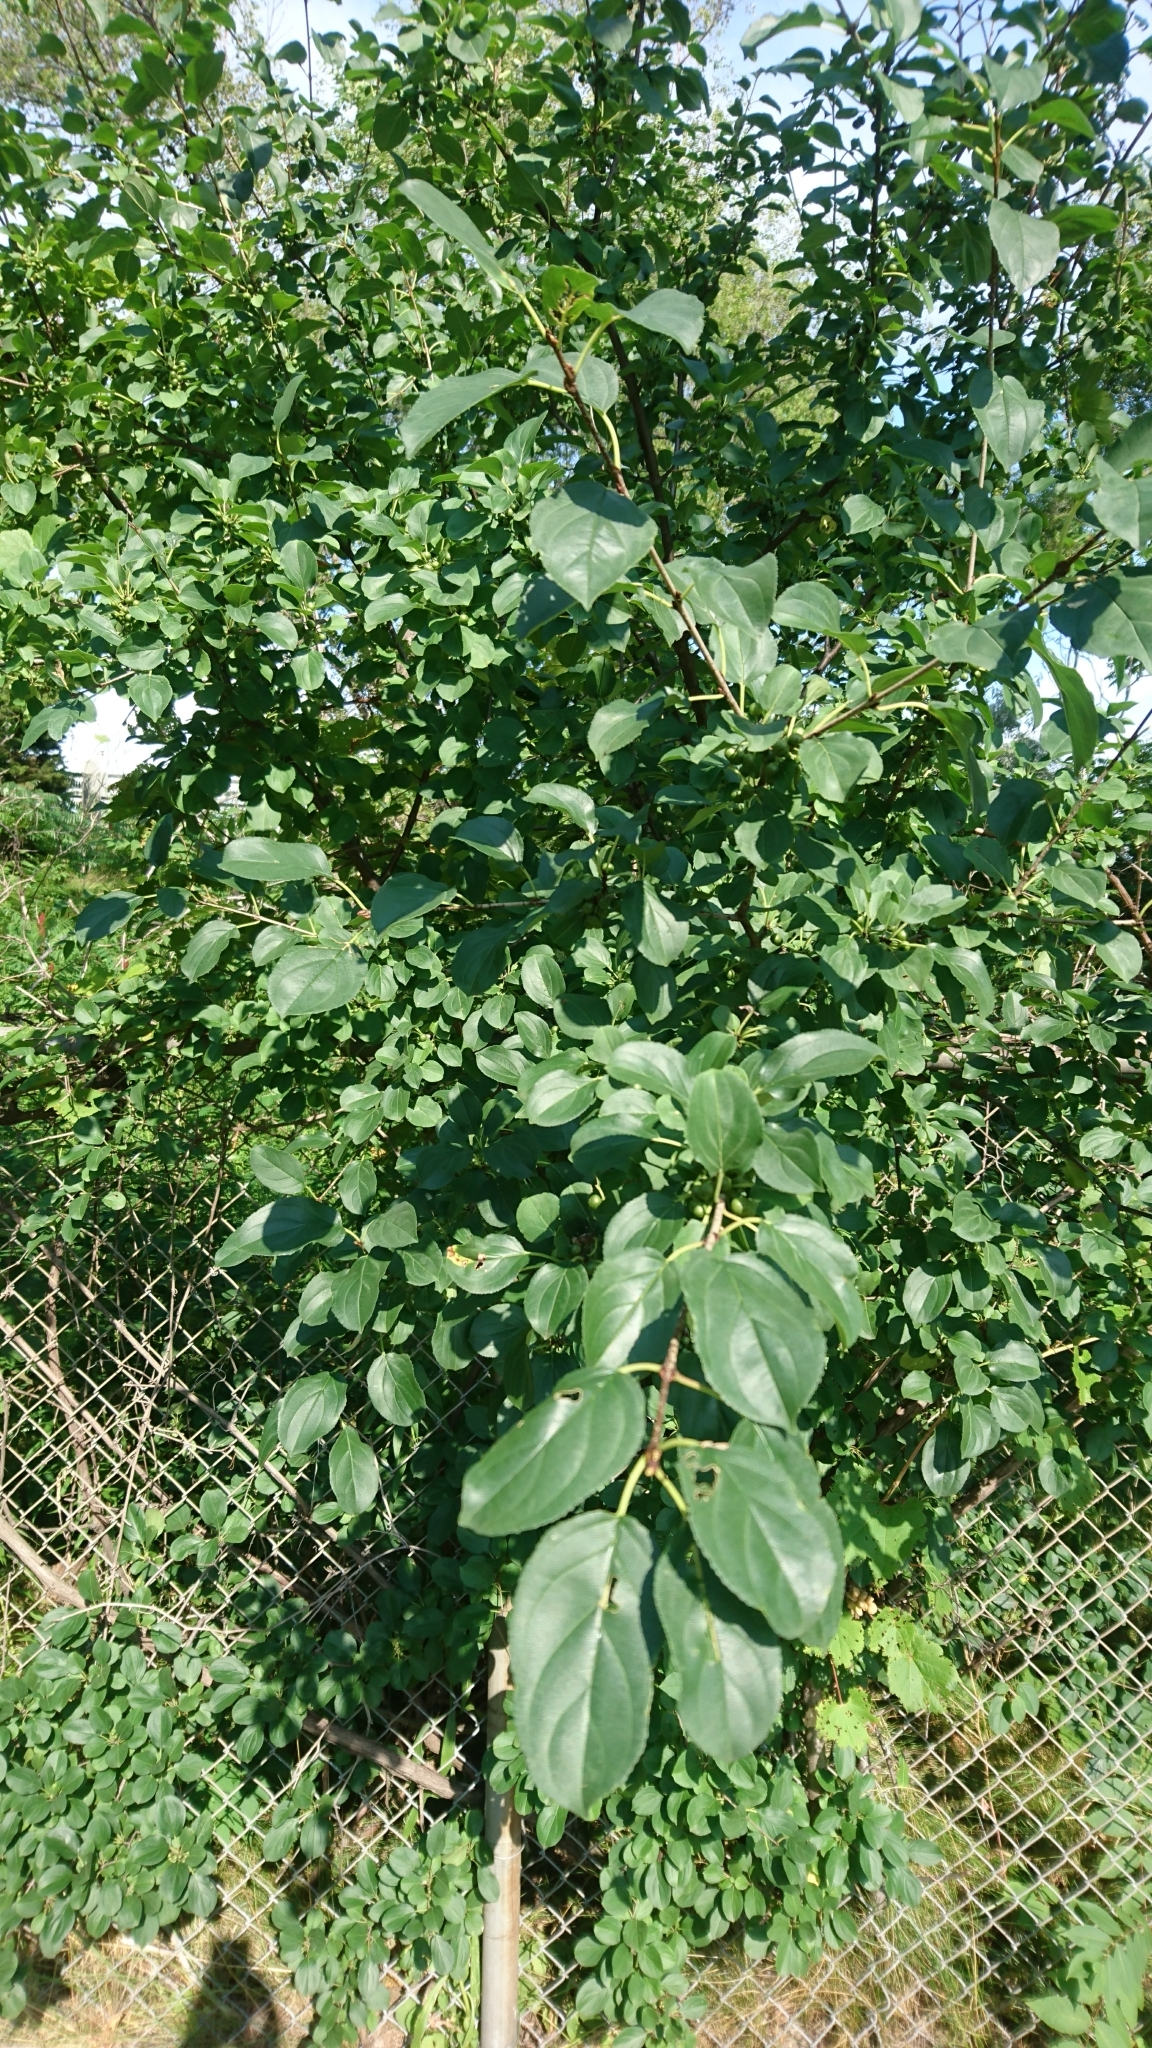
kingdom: Plantae
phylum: Tracheophyta
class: Magnoliopsida
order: Rosales
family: Rhamnaceae
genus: Rhamnus
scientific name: Rhamnus cathartica
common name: Common buckthorn
